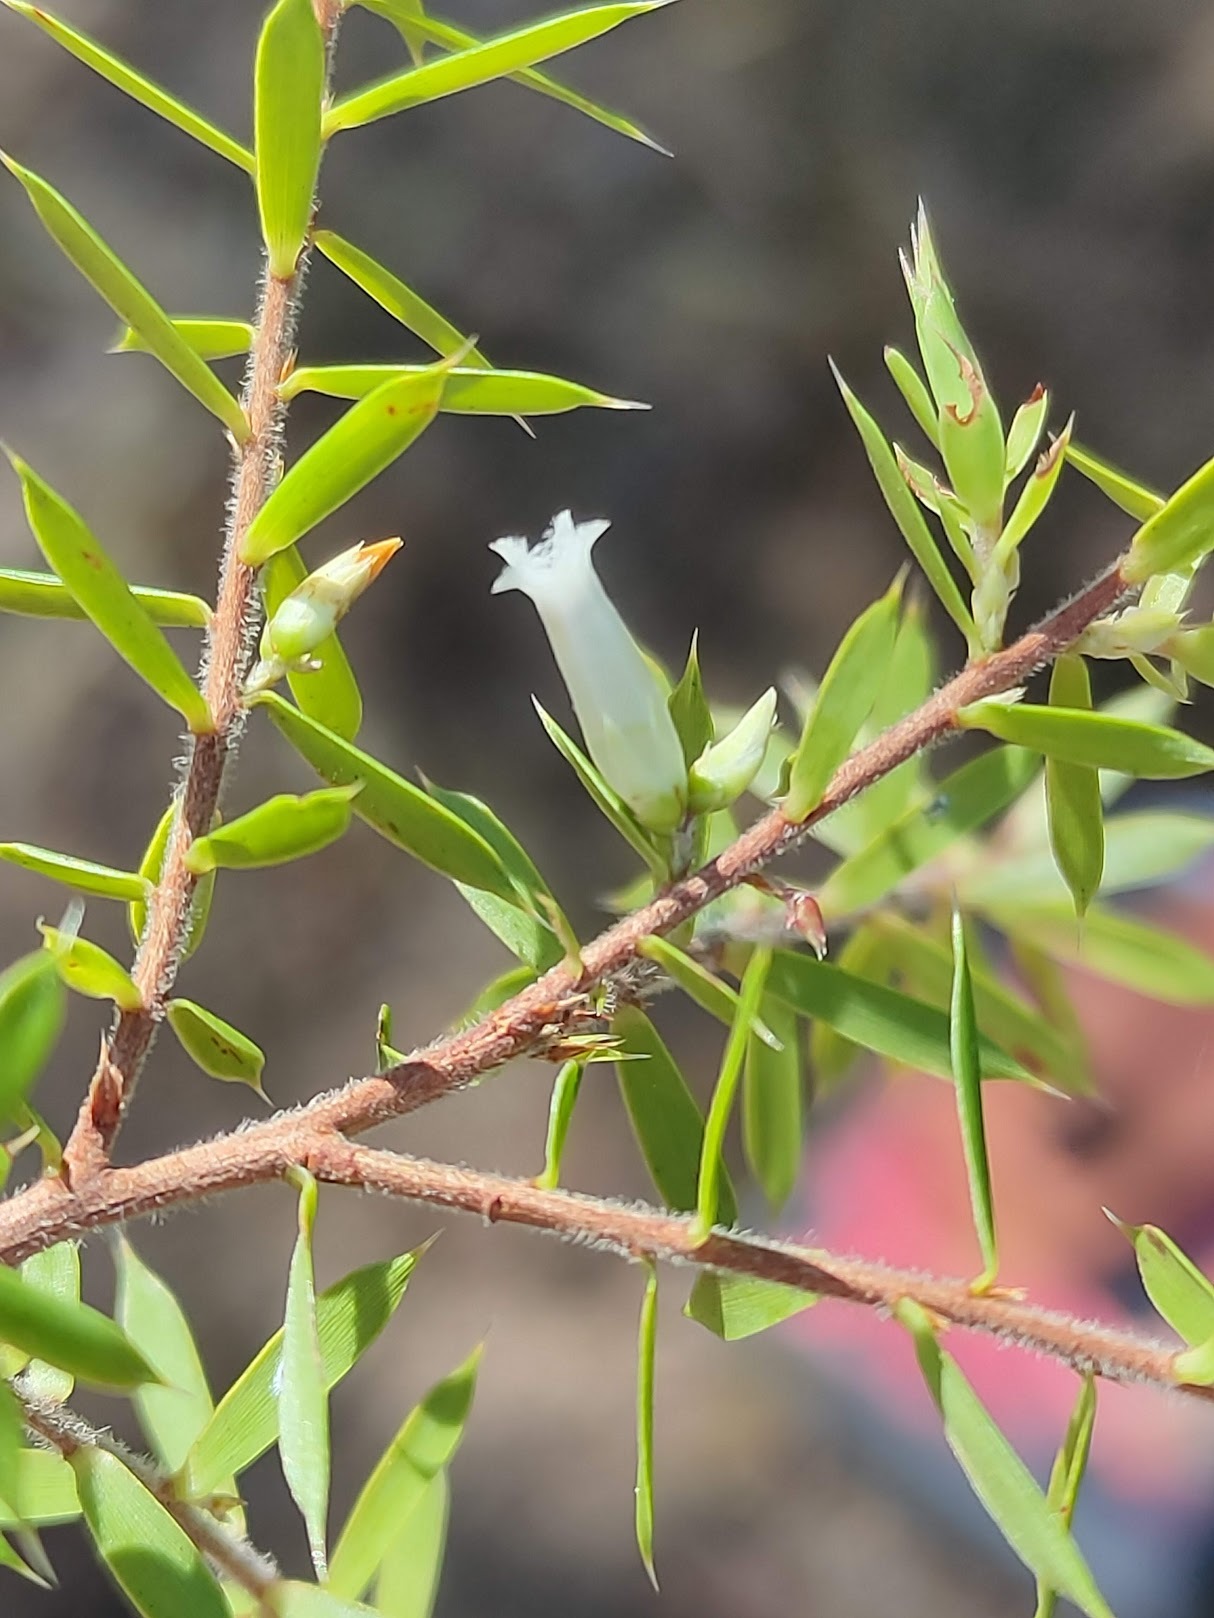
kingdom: Plantae
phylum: Tracheophyta
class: Magnoliopsida
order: Ericales
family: Ericaceae
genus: Styphelia
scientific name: Styphelia sieberi
